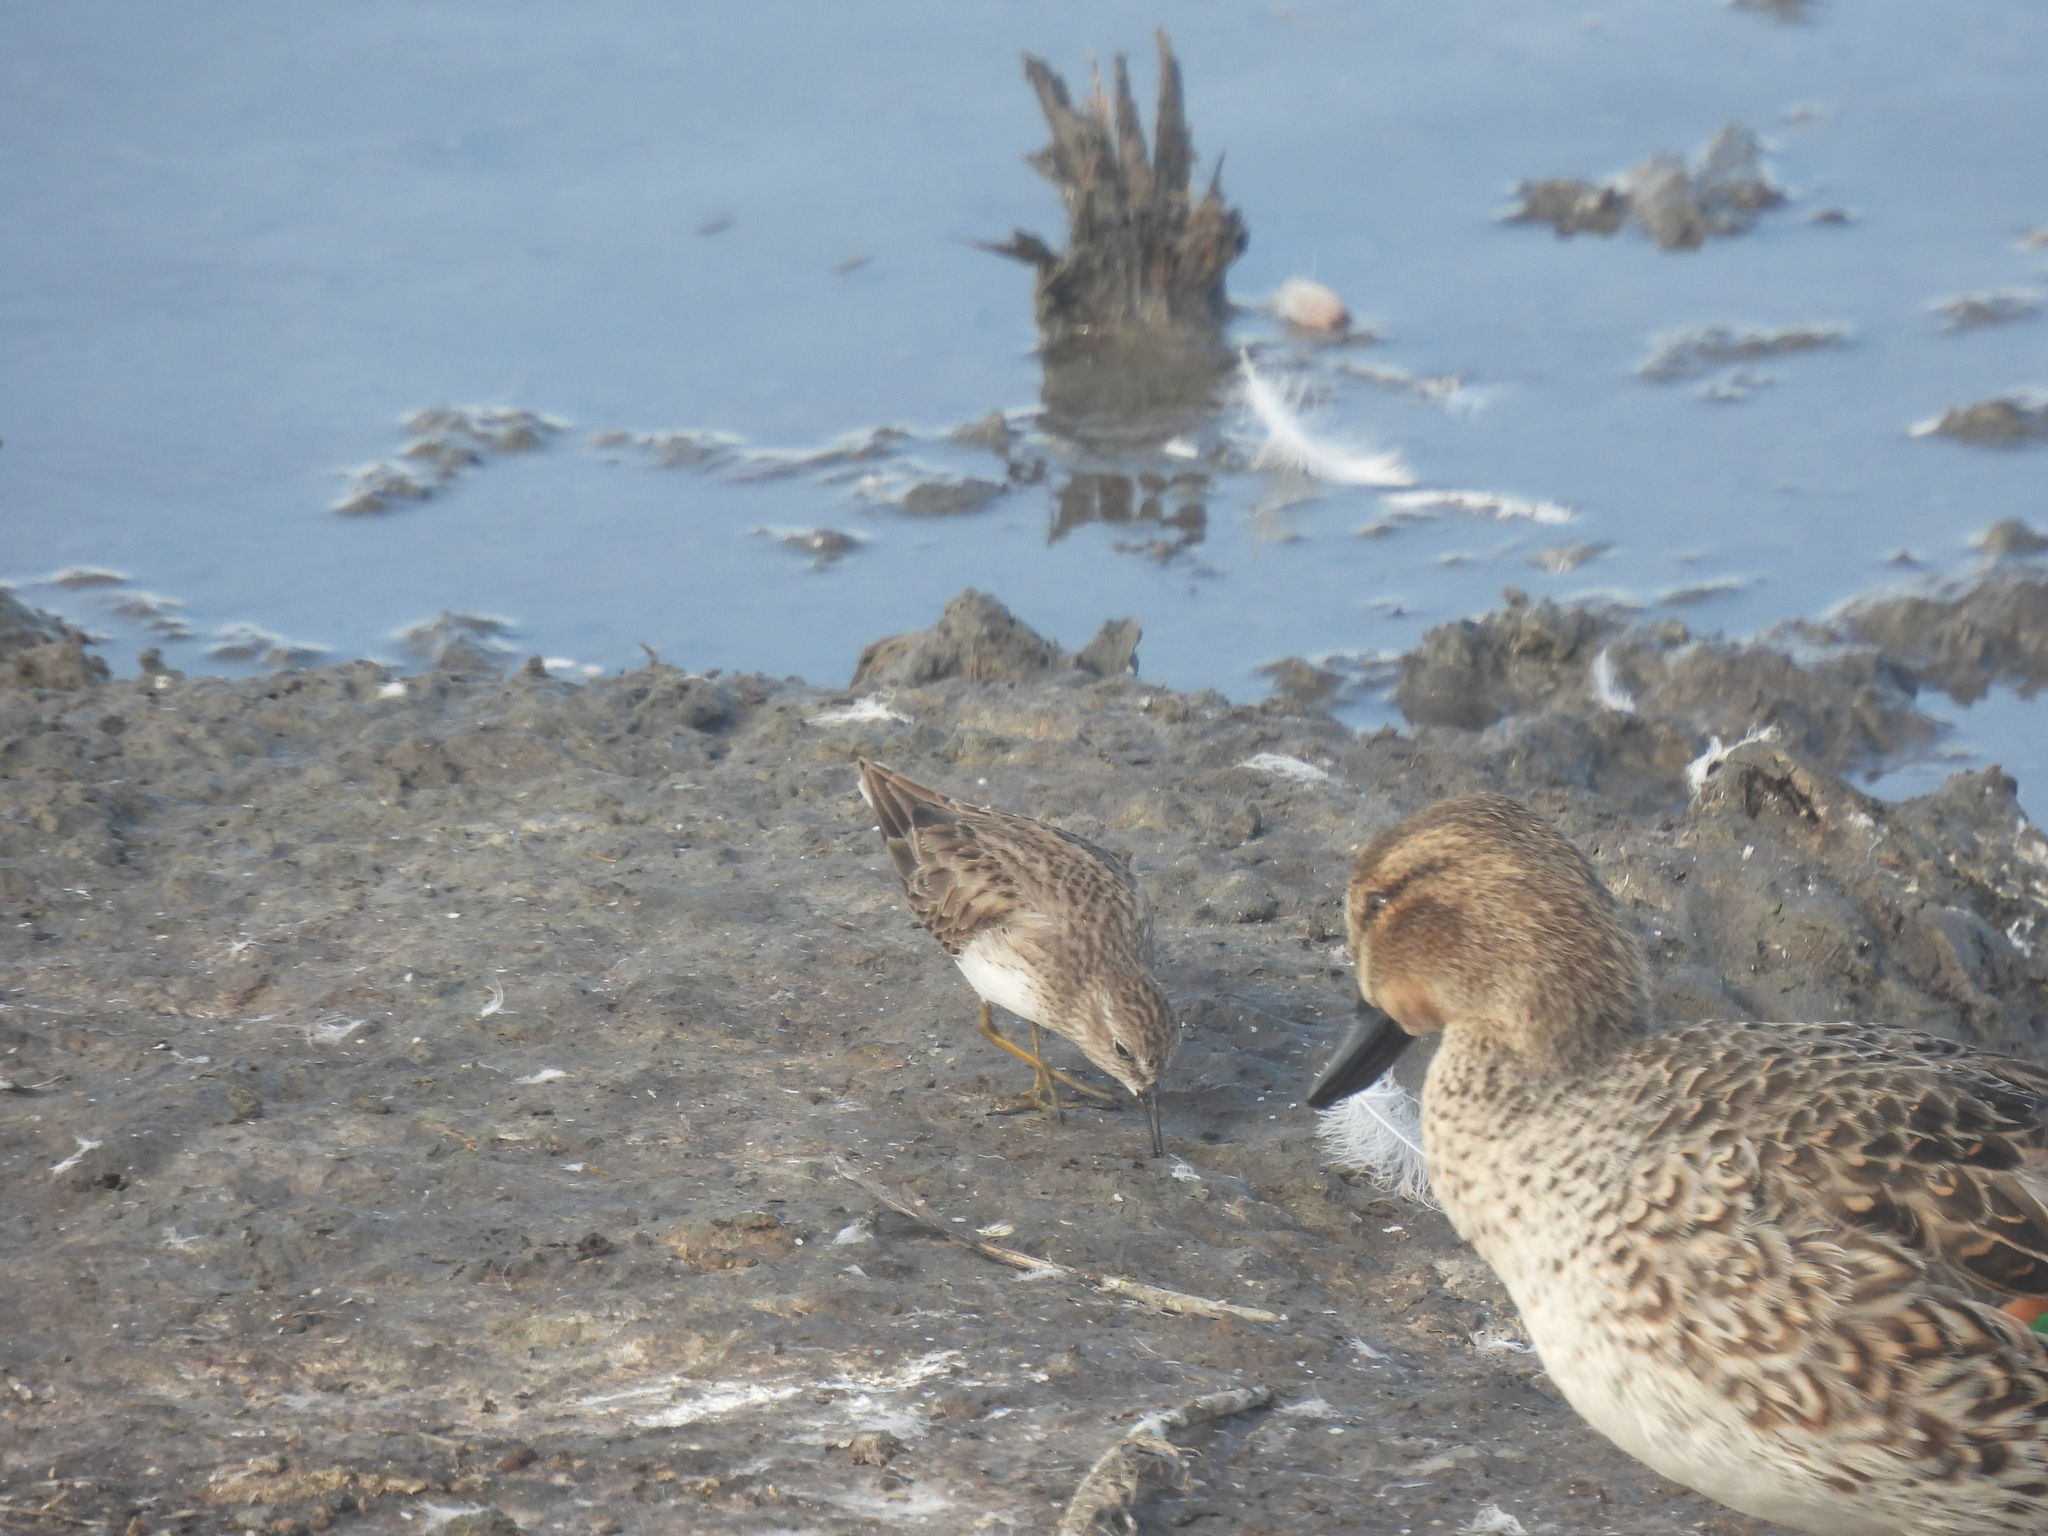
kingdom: Animalia
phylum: Chordata
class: Aves
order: Charadriiformes
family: Scolopacidae
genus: Calidris
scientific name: Calidris minutilla
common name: Least sandpiper
